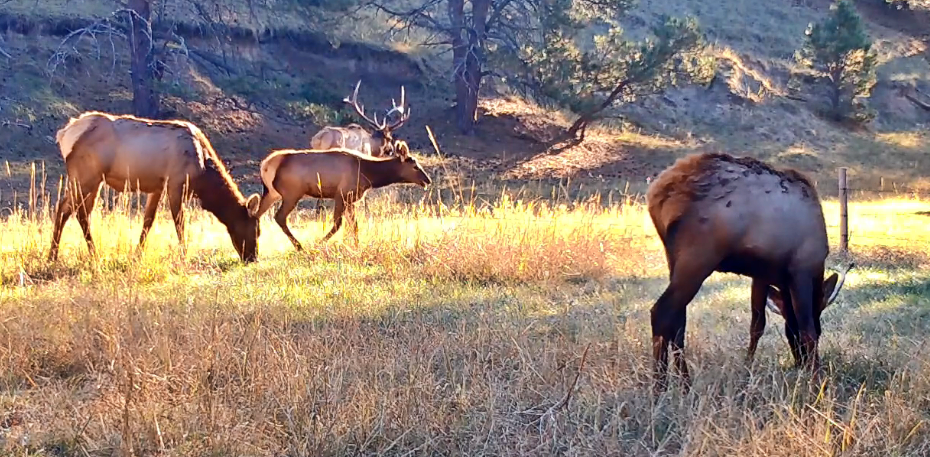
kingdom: Animalia
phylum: Chordata
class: Mammalia
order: Artiodactyla
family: Cervidae
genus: Cervus
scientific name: Cervus elaphus
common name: Red deer
